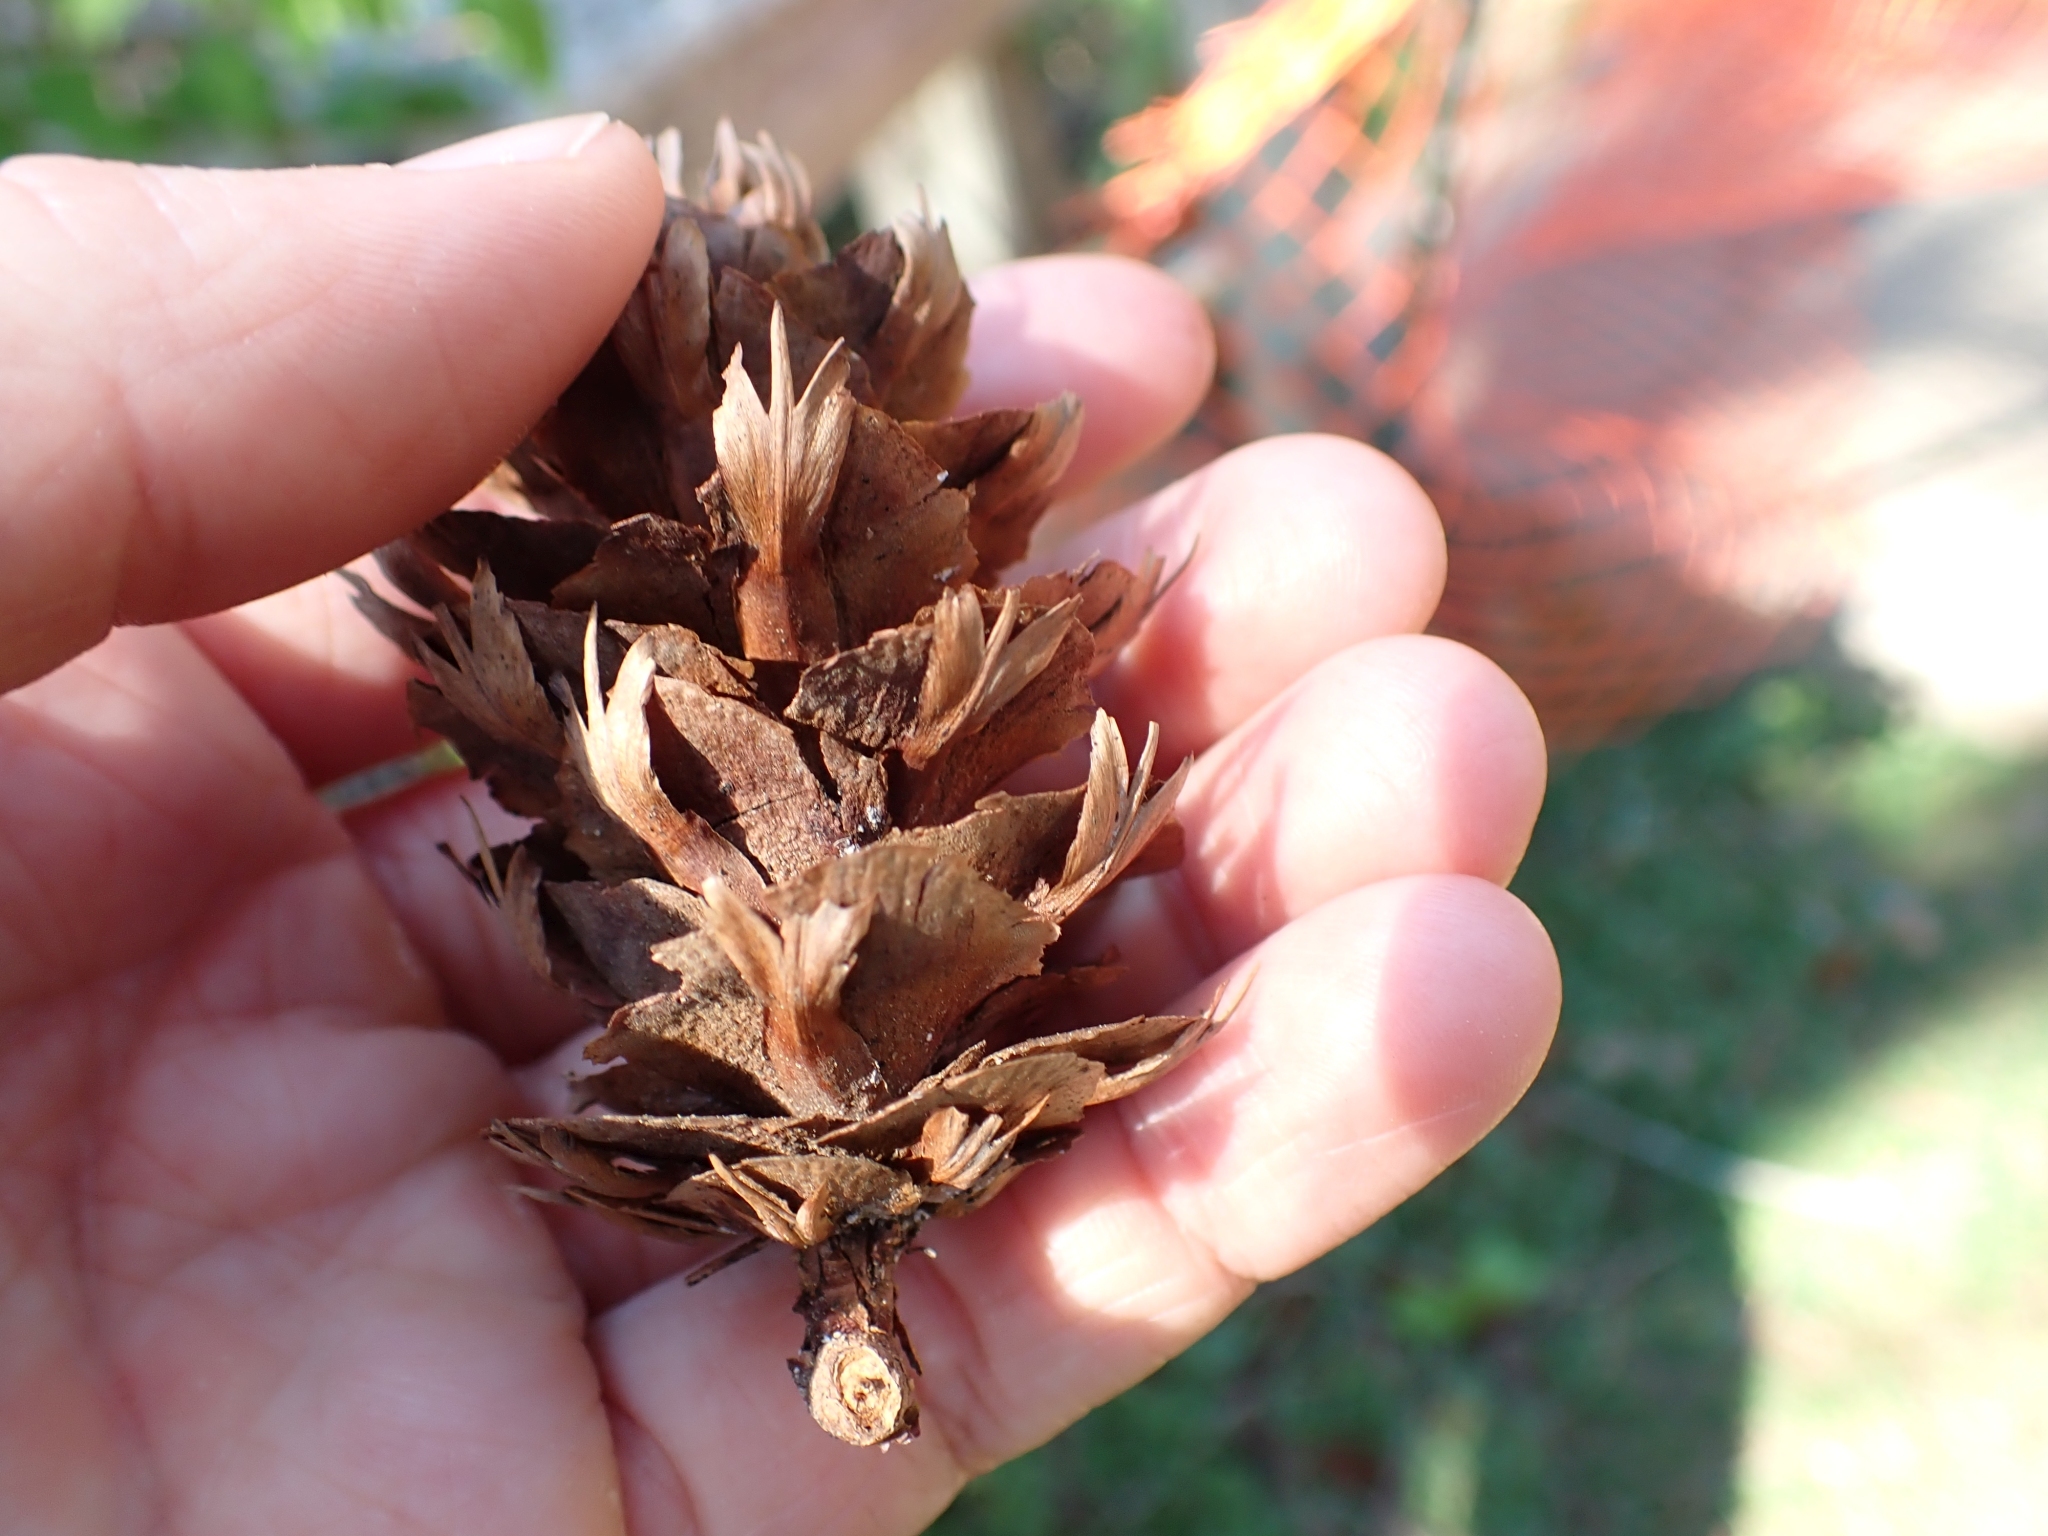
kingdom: Plantae
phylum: Tracheophyta
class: Pinopsida
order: Pinales
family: Pinaceae
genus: Pseudotsuga
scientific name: Pseudotsuga menziesii
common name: Douglas fir
